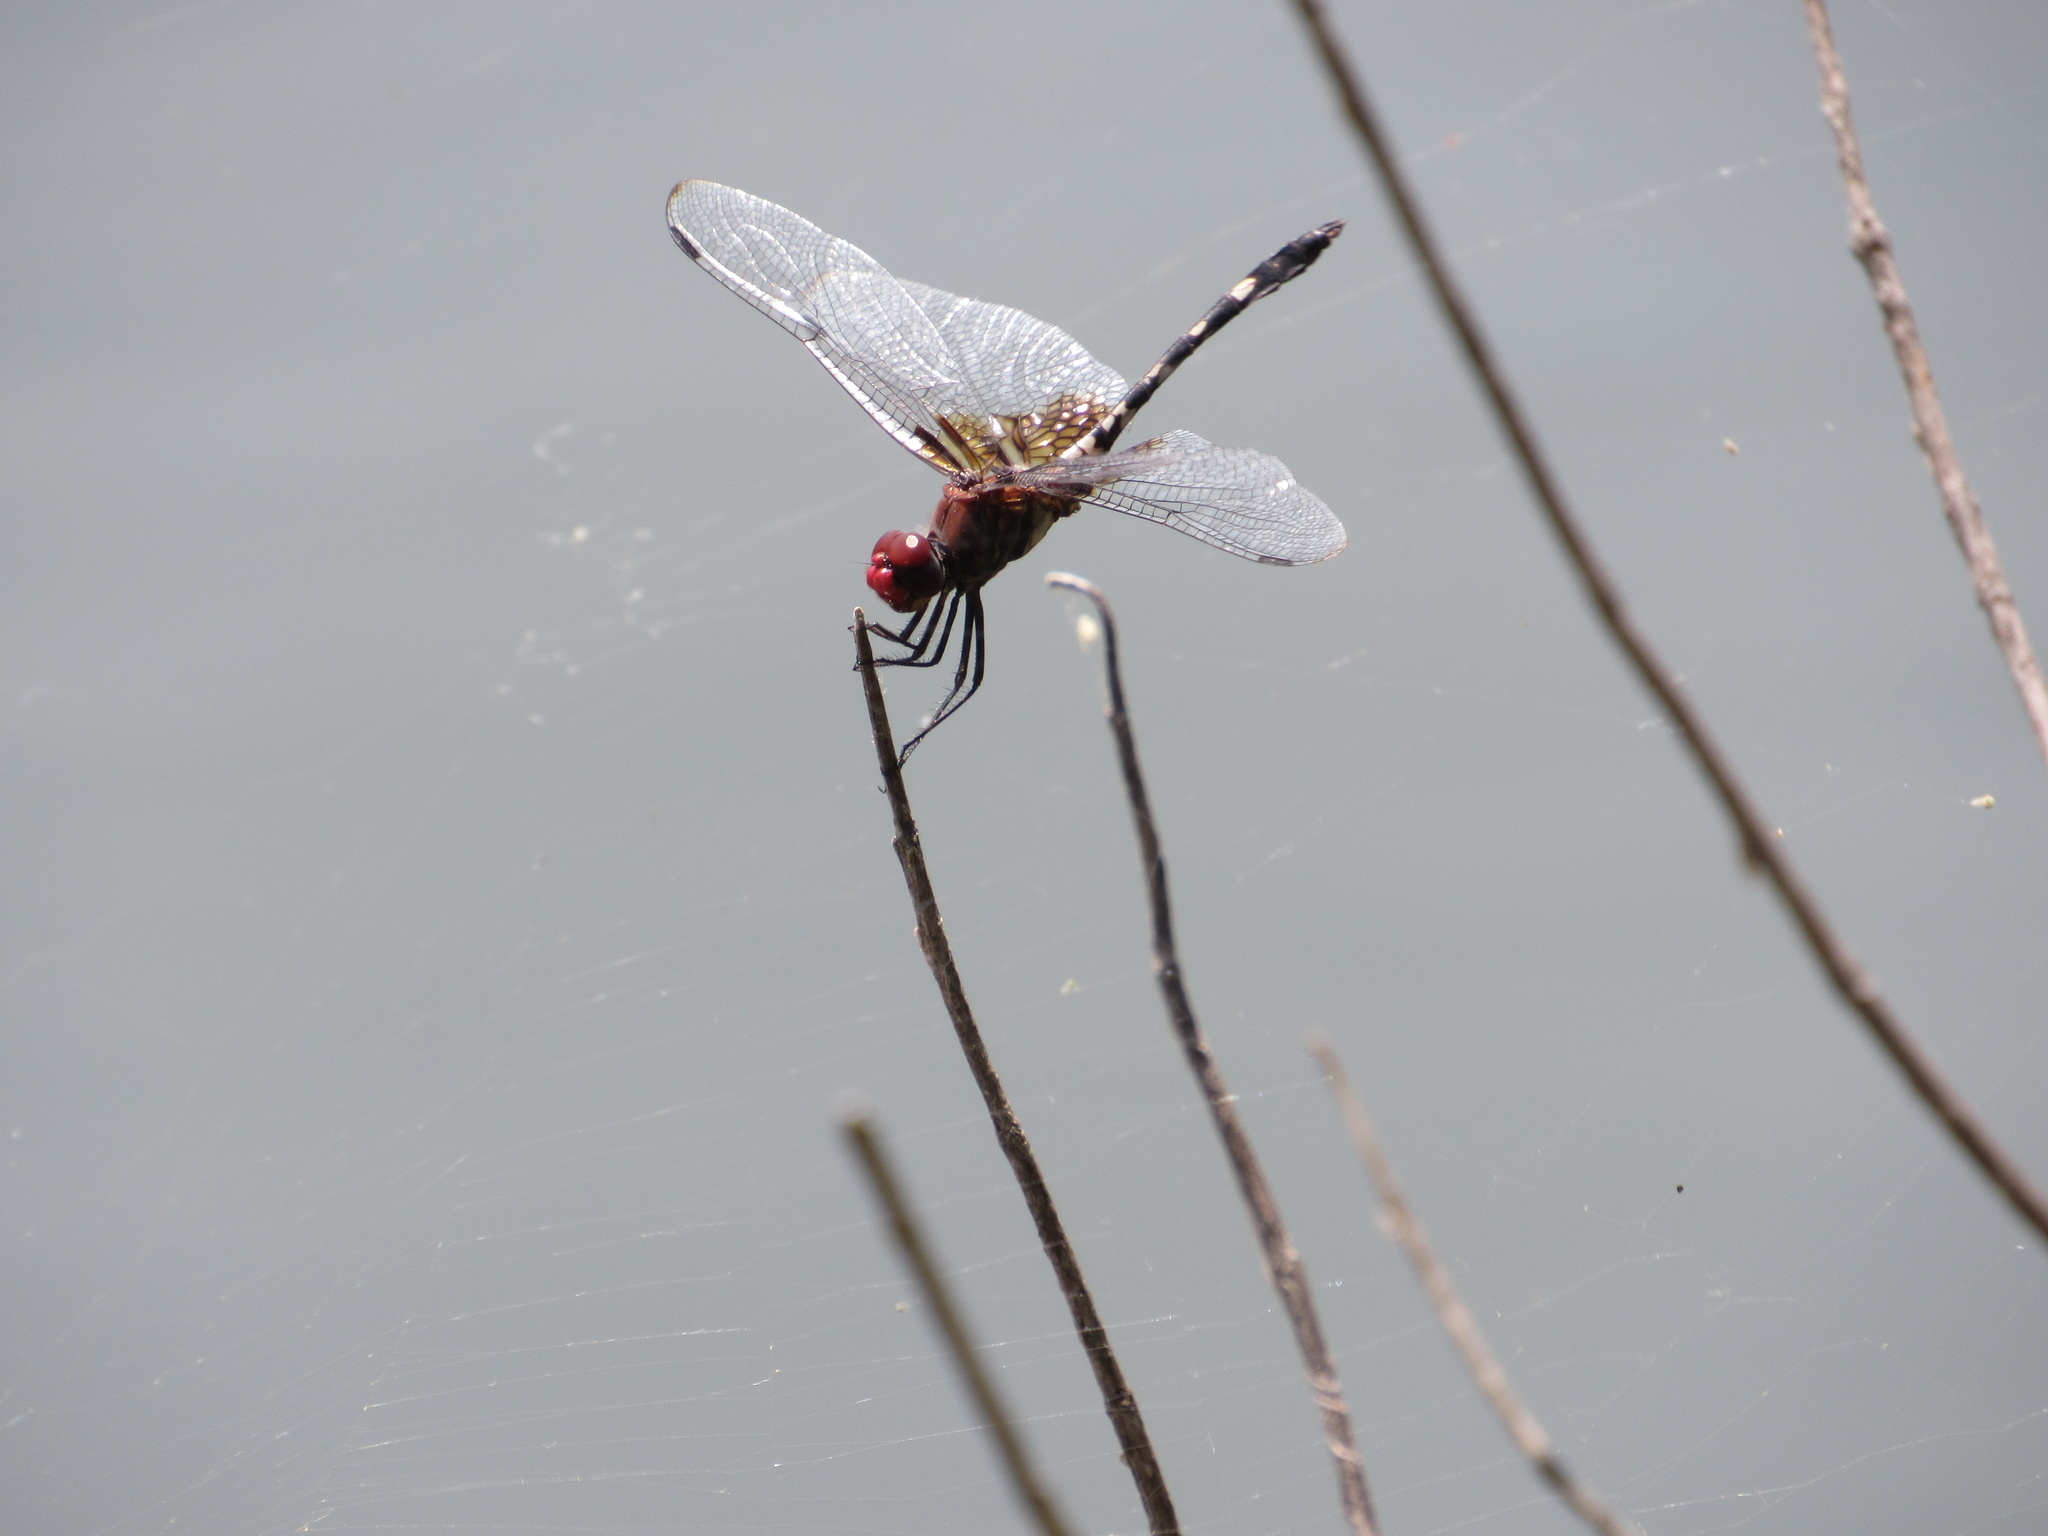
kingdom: Animalia
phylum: Arthropoda
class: Insecta
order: Odonata
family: Libellulidae
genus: Dythemis
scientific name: Dythemis fugax
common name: Checkered setwing
